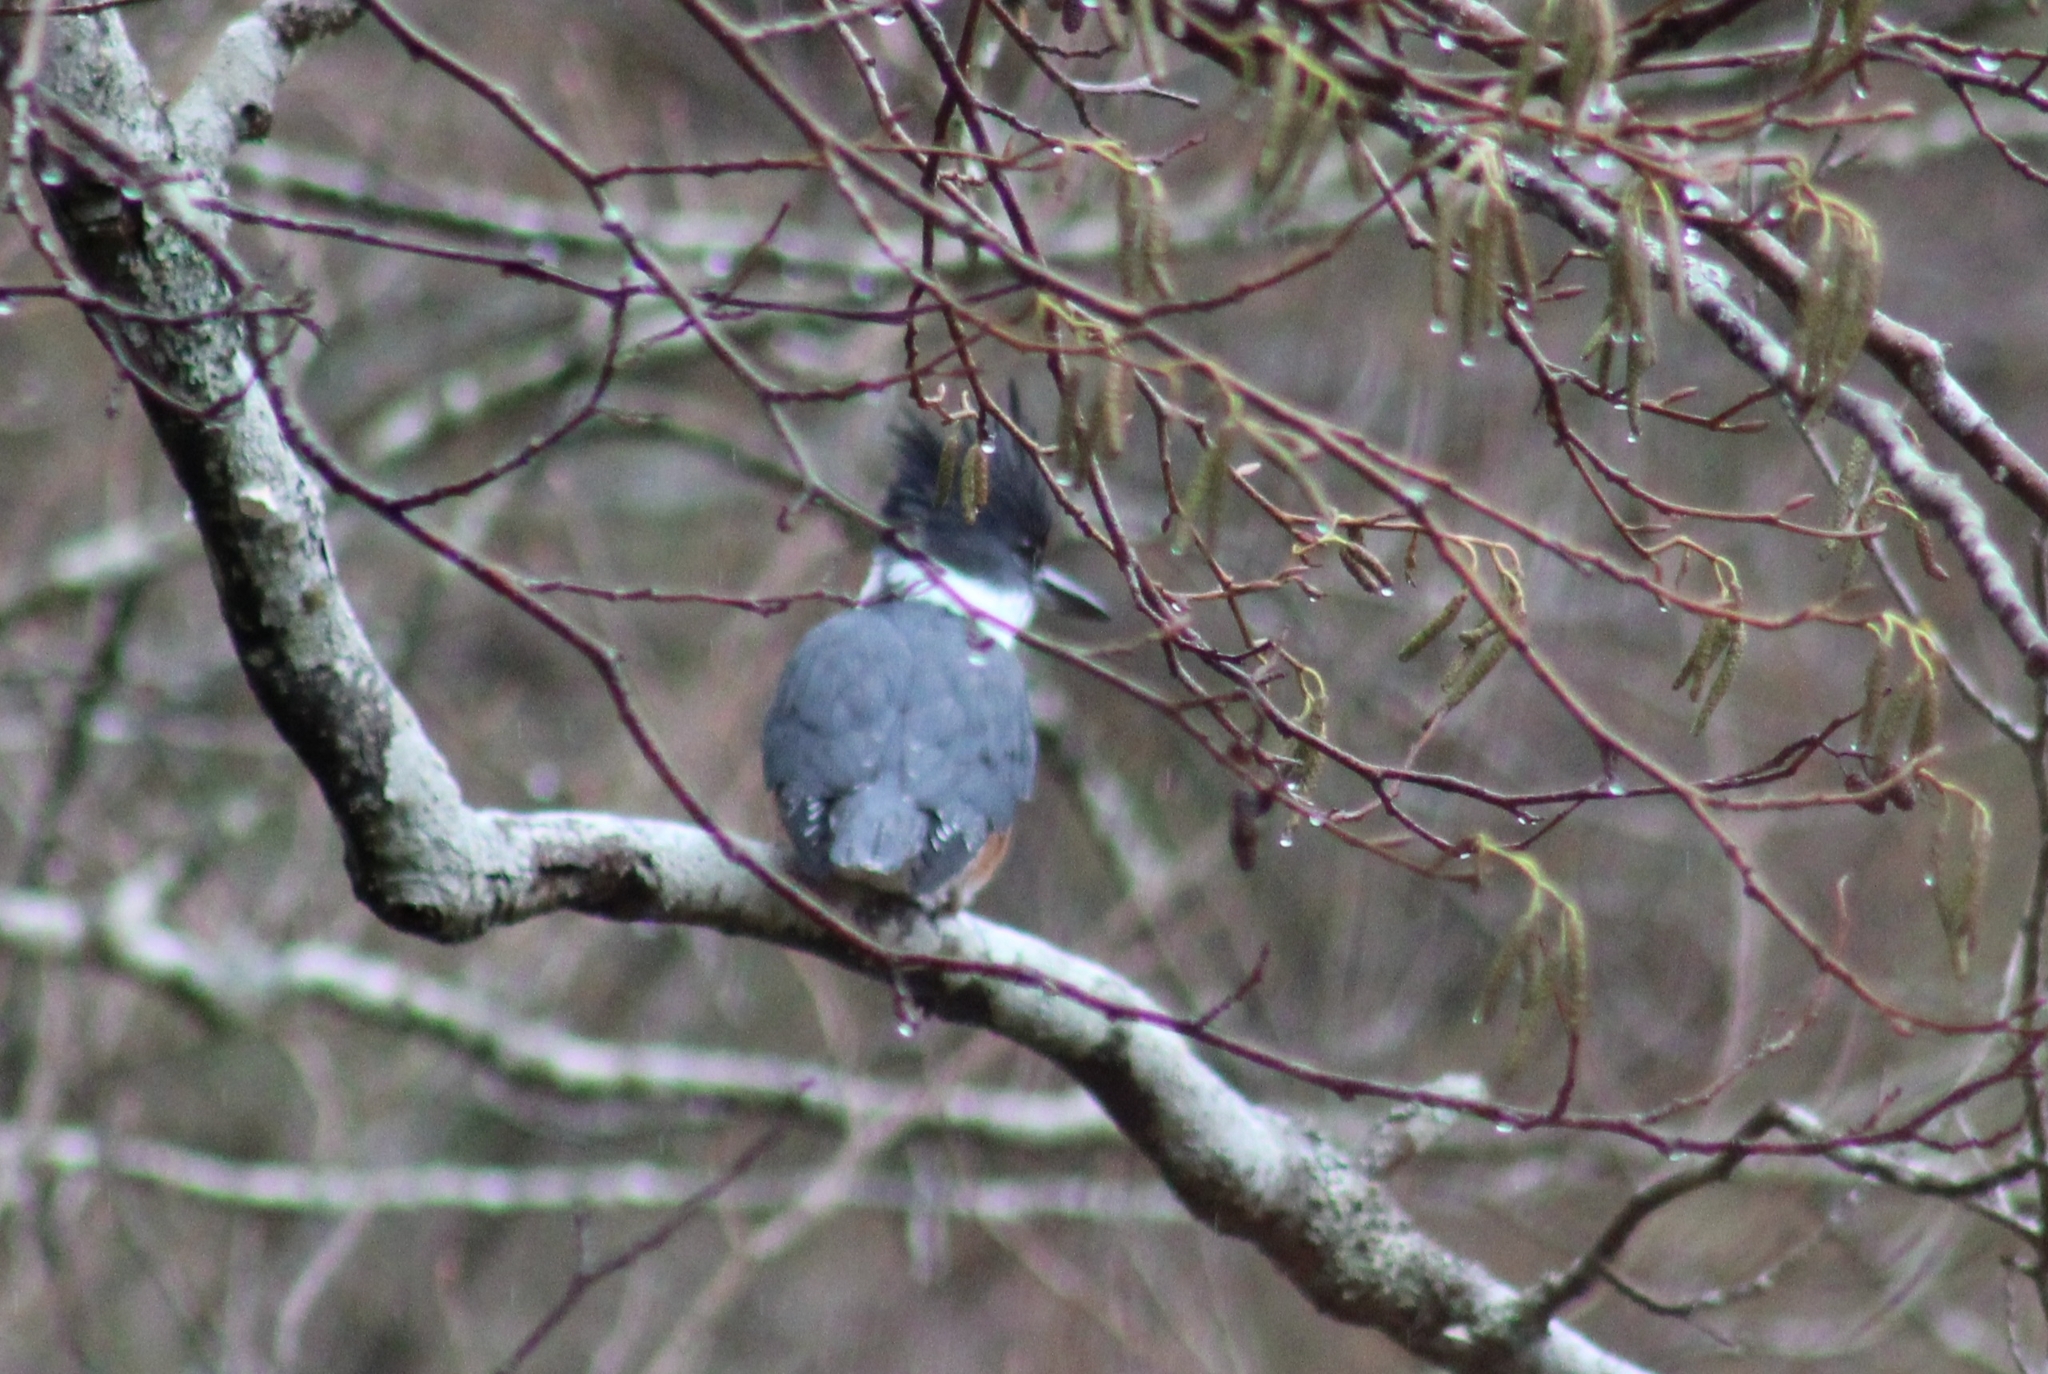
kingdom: Animalia
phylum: Chordata
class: Aves
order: Coraciiformes
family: Alcedinidae
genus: Megaceryle
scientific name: Megaceryle alcyon
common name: Belted kingfisher
